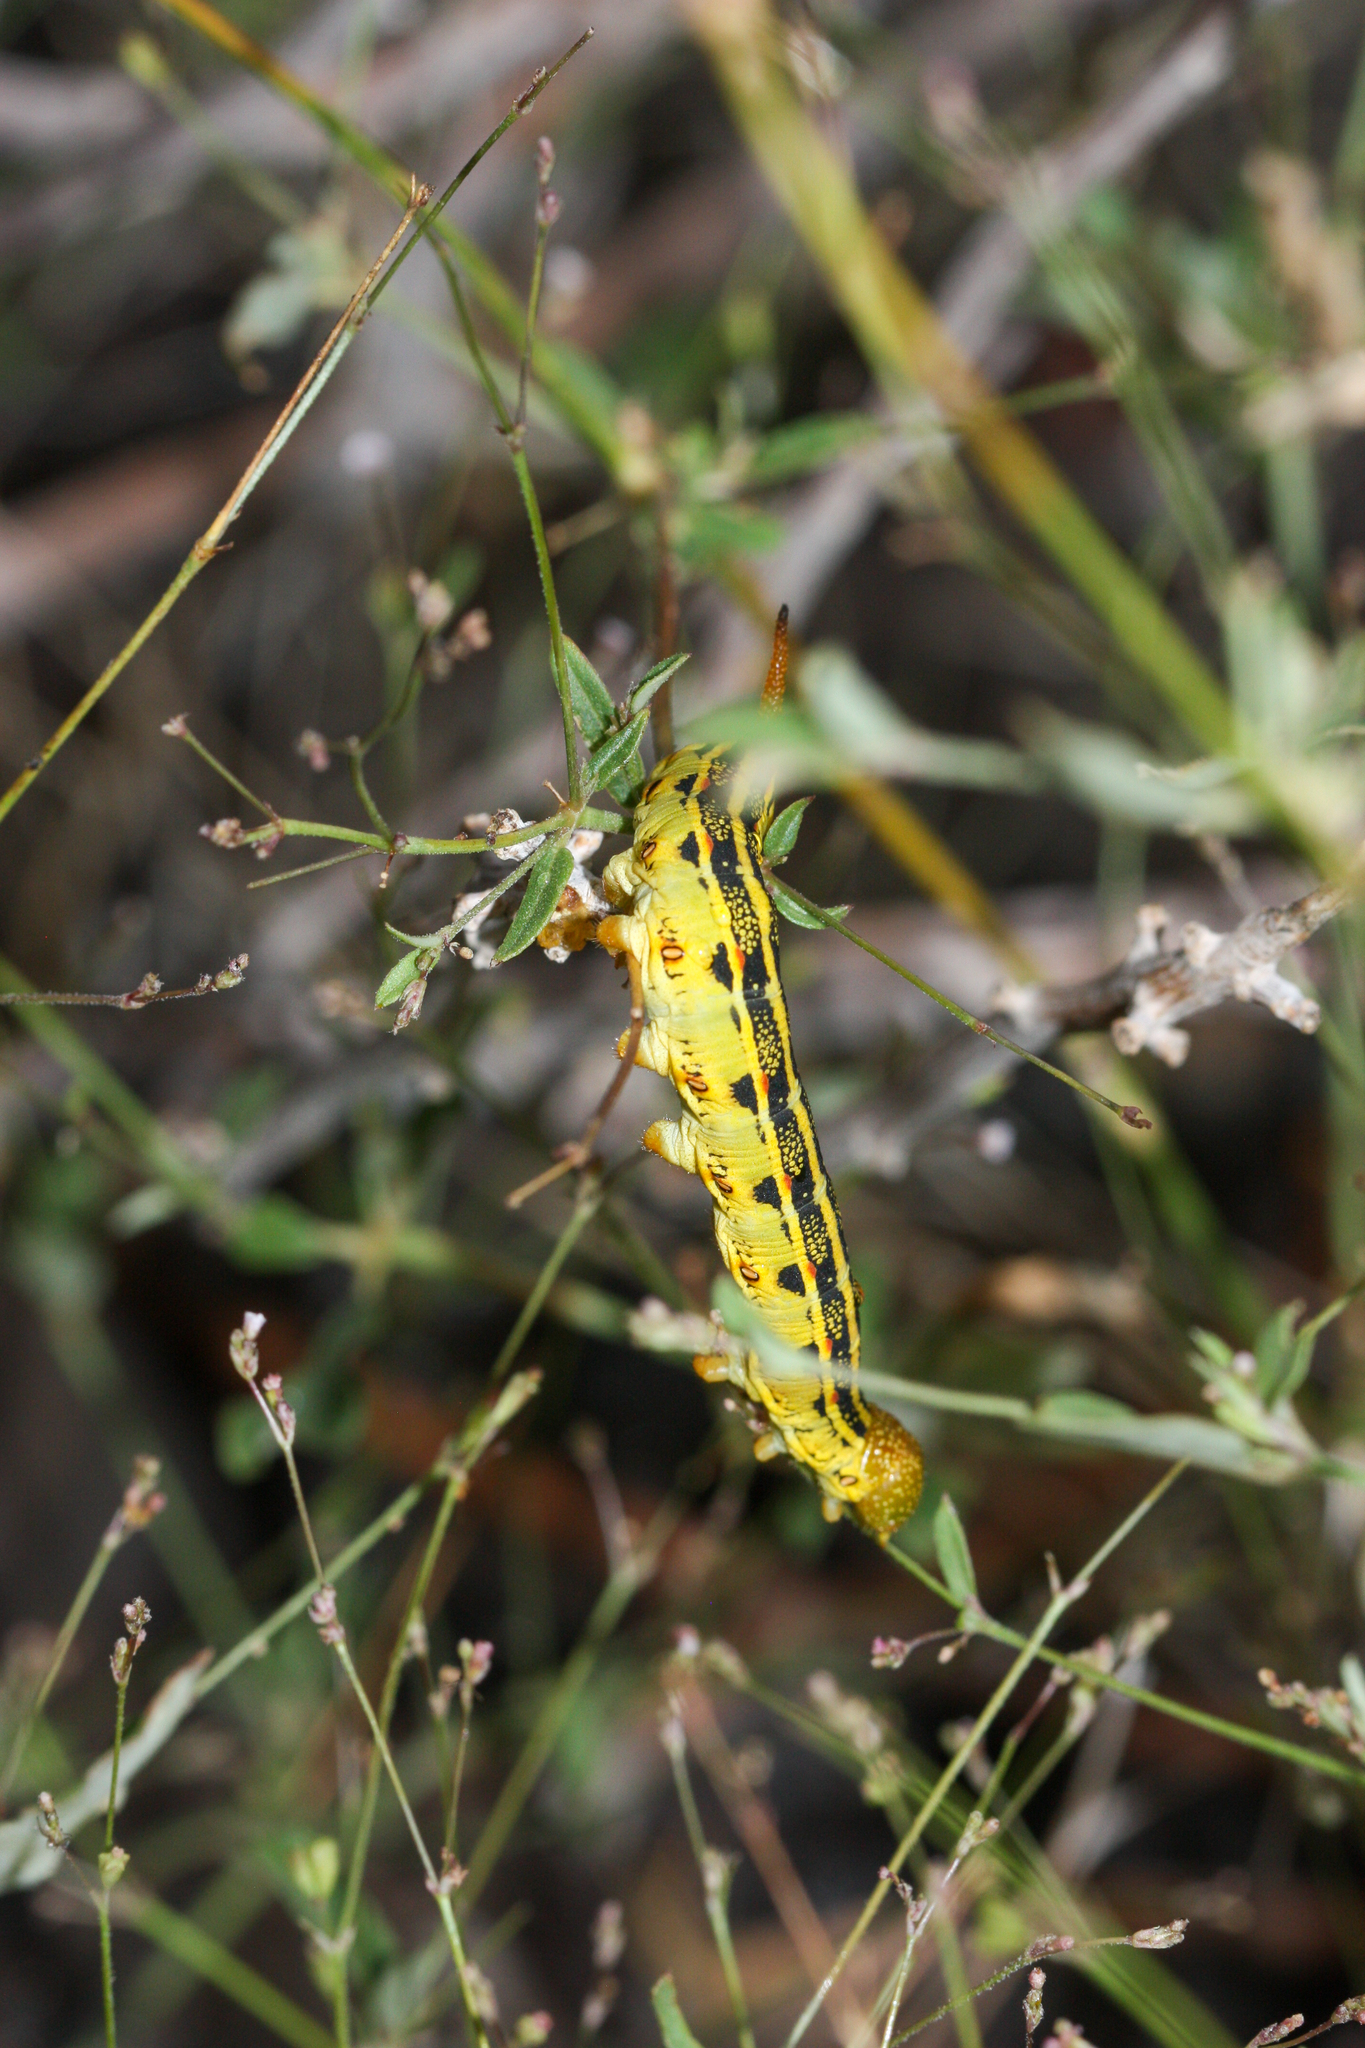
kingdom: Animalia
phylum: Arthropoda
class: Insecta
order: Lepidoptera
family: Sphingidae
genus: Hyles
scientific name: Hyles lineata
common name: White-lined sphinx
